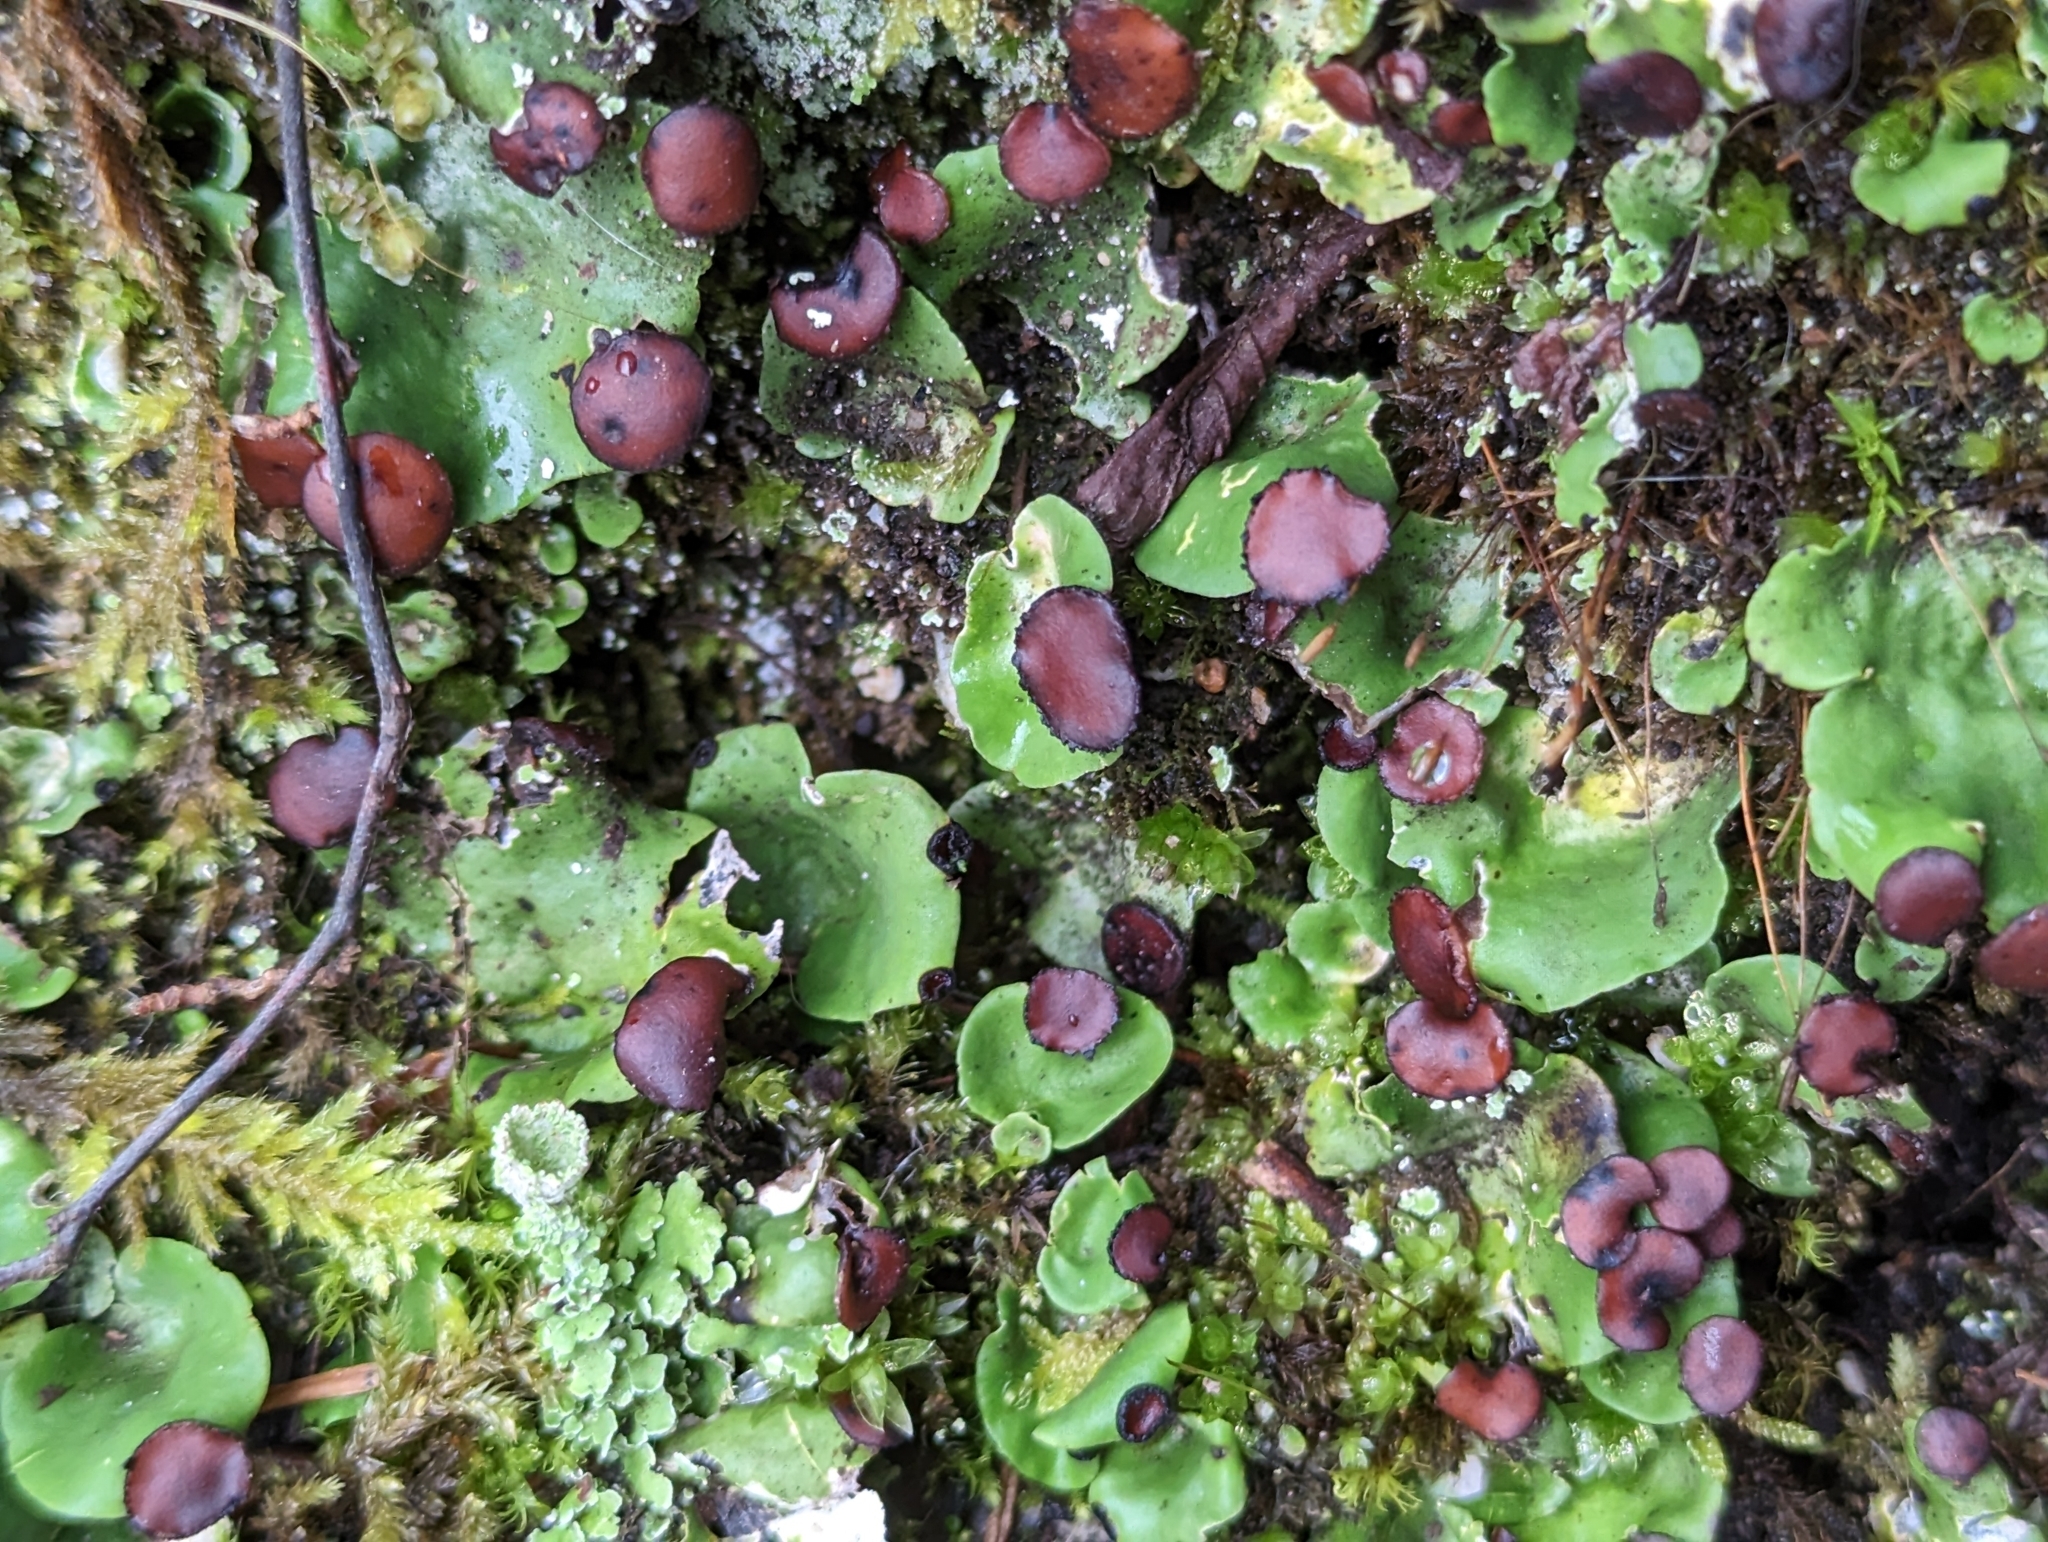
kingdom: Fungi
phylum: Ascomycota
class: Lecanoromycetes
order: Peltigerales
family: Peltigeraceae
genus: Peltigera
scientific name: Peltigera venosa
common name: Pixie gowns lichen
